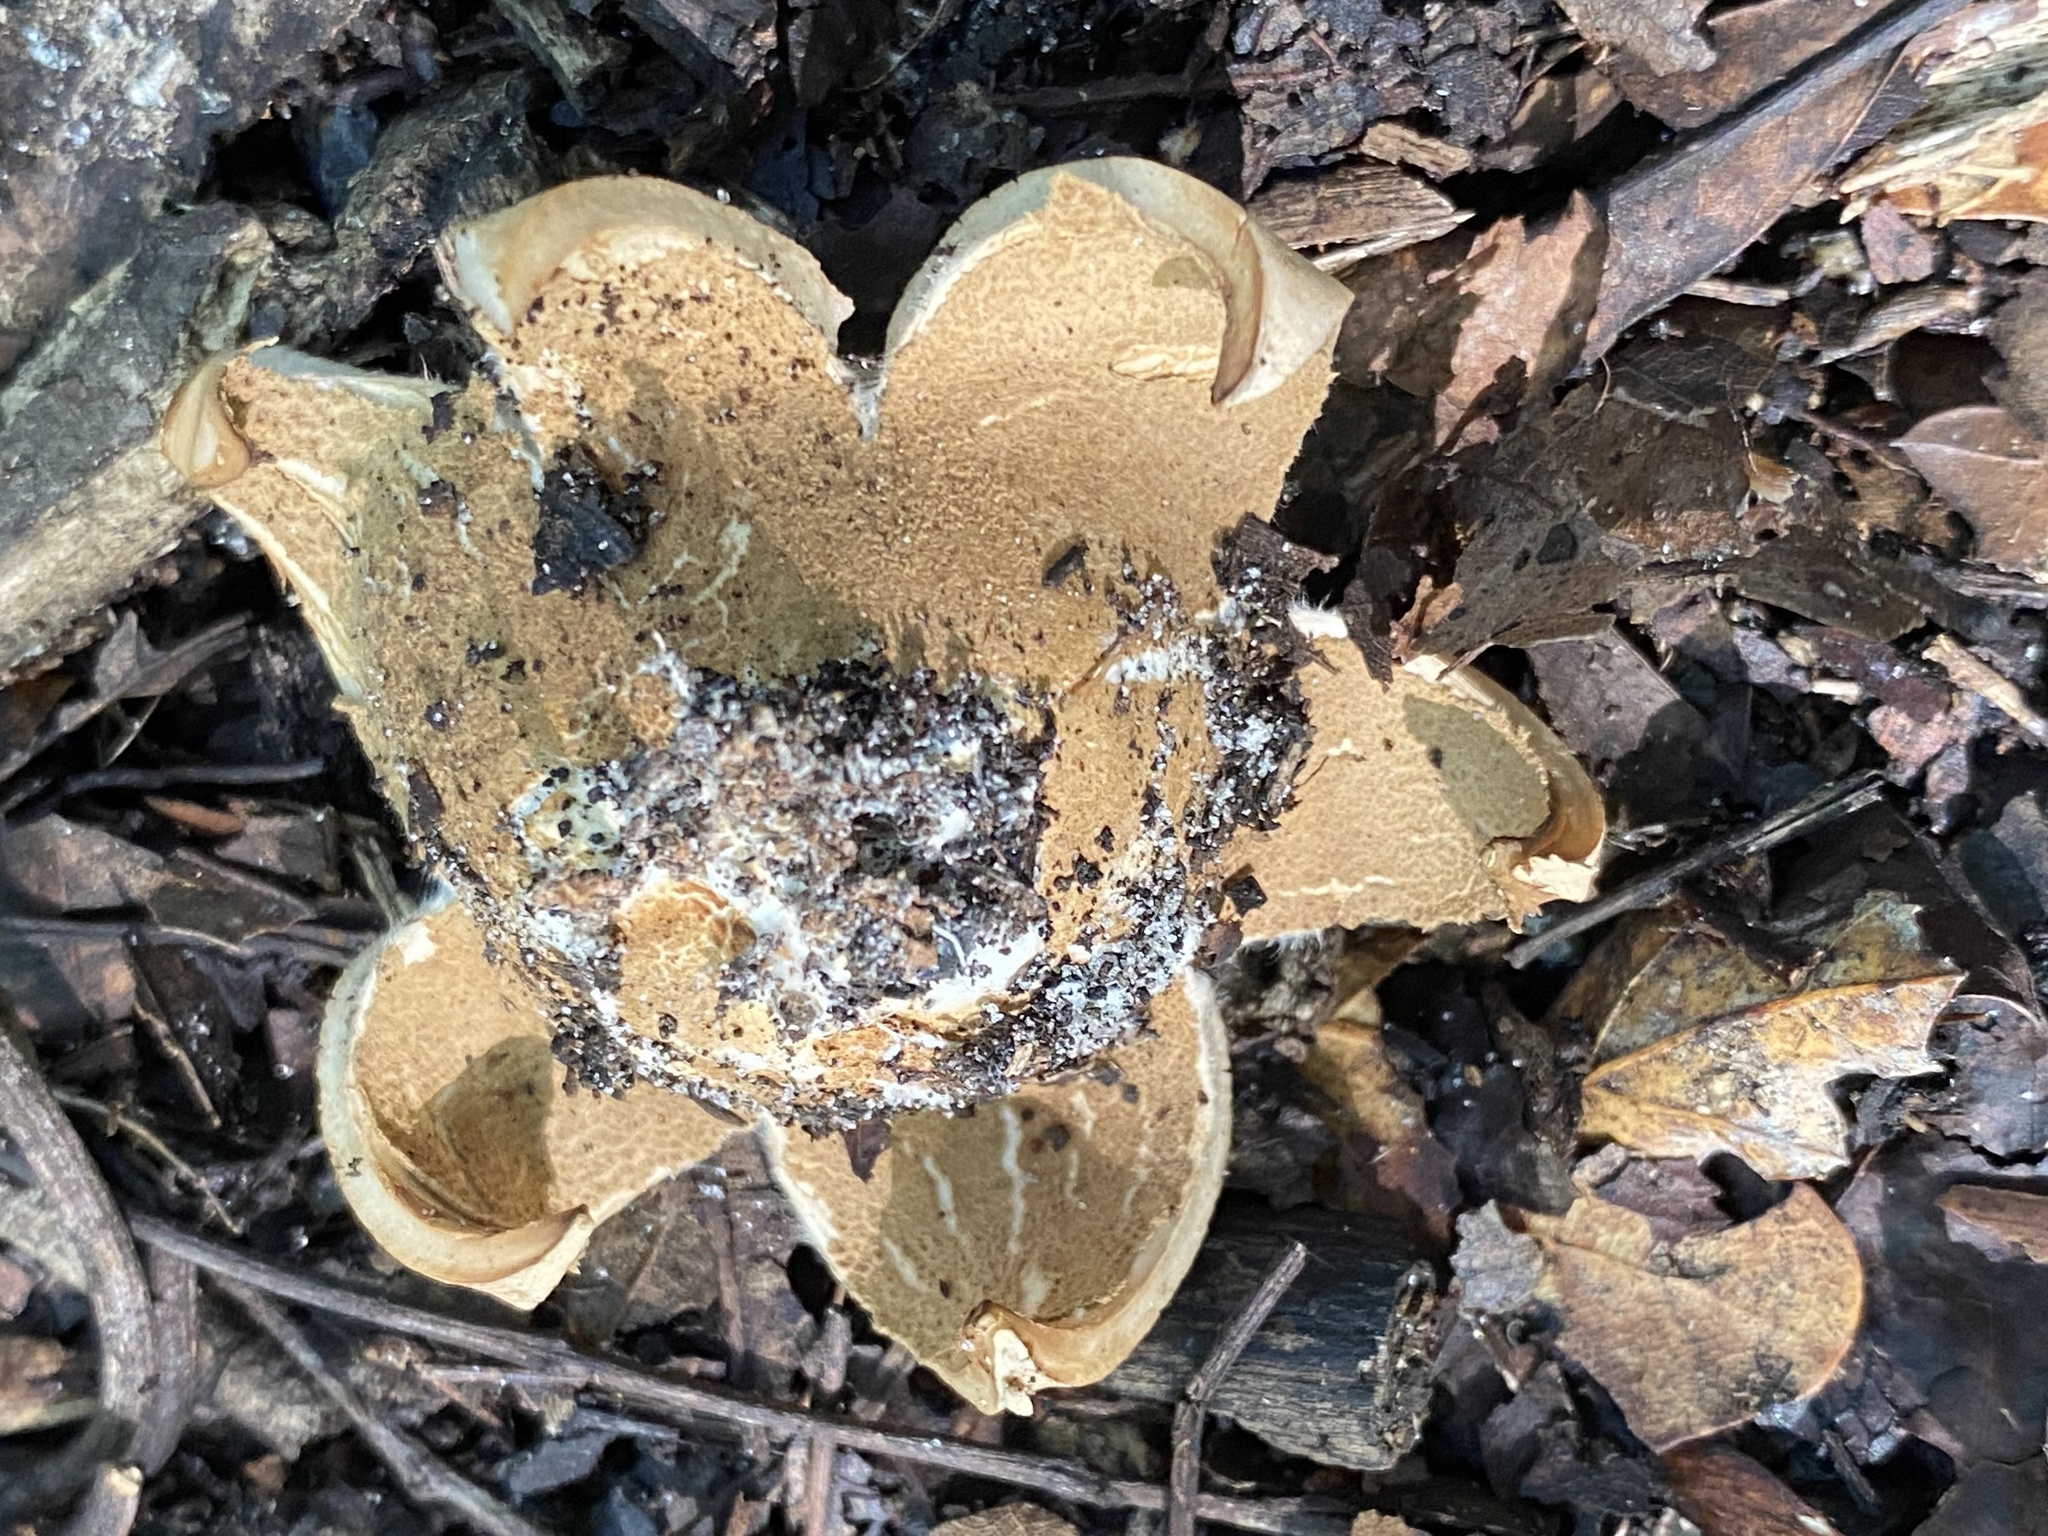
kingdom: Fungi
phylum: Basidiomycota
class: Agaricomycetes
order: Geastrales
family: Geastraceae
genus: Geastrum
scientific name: Geastrum saccatum
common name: Rounded earthstar
